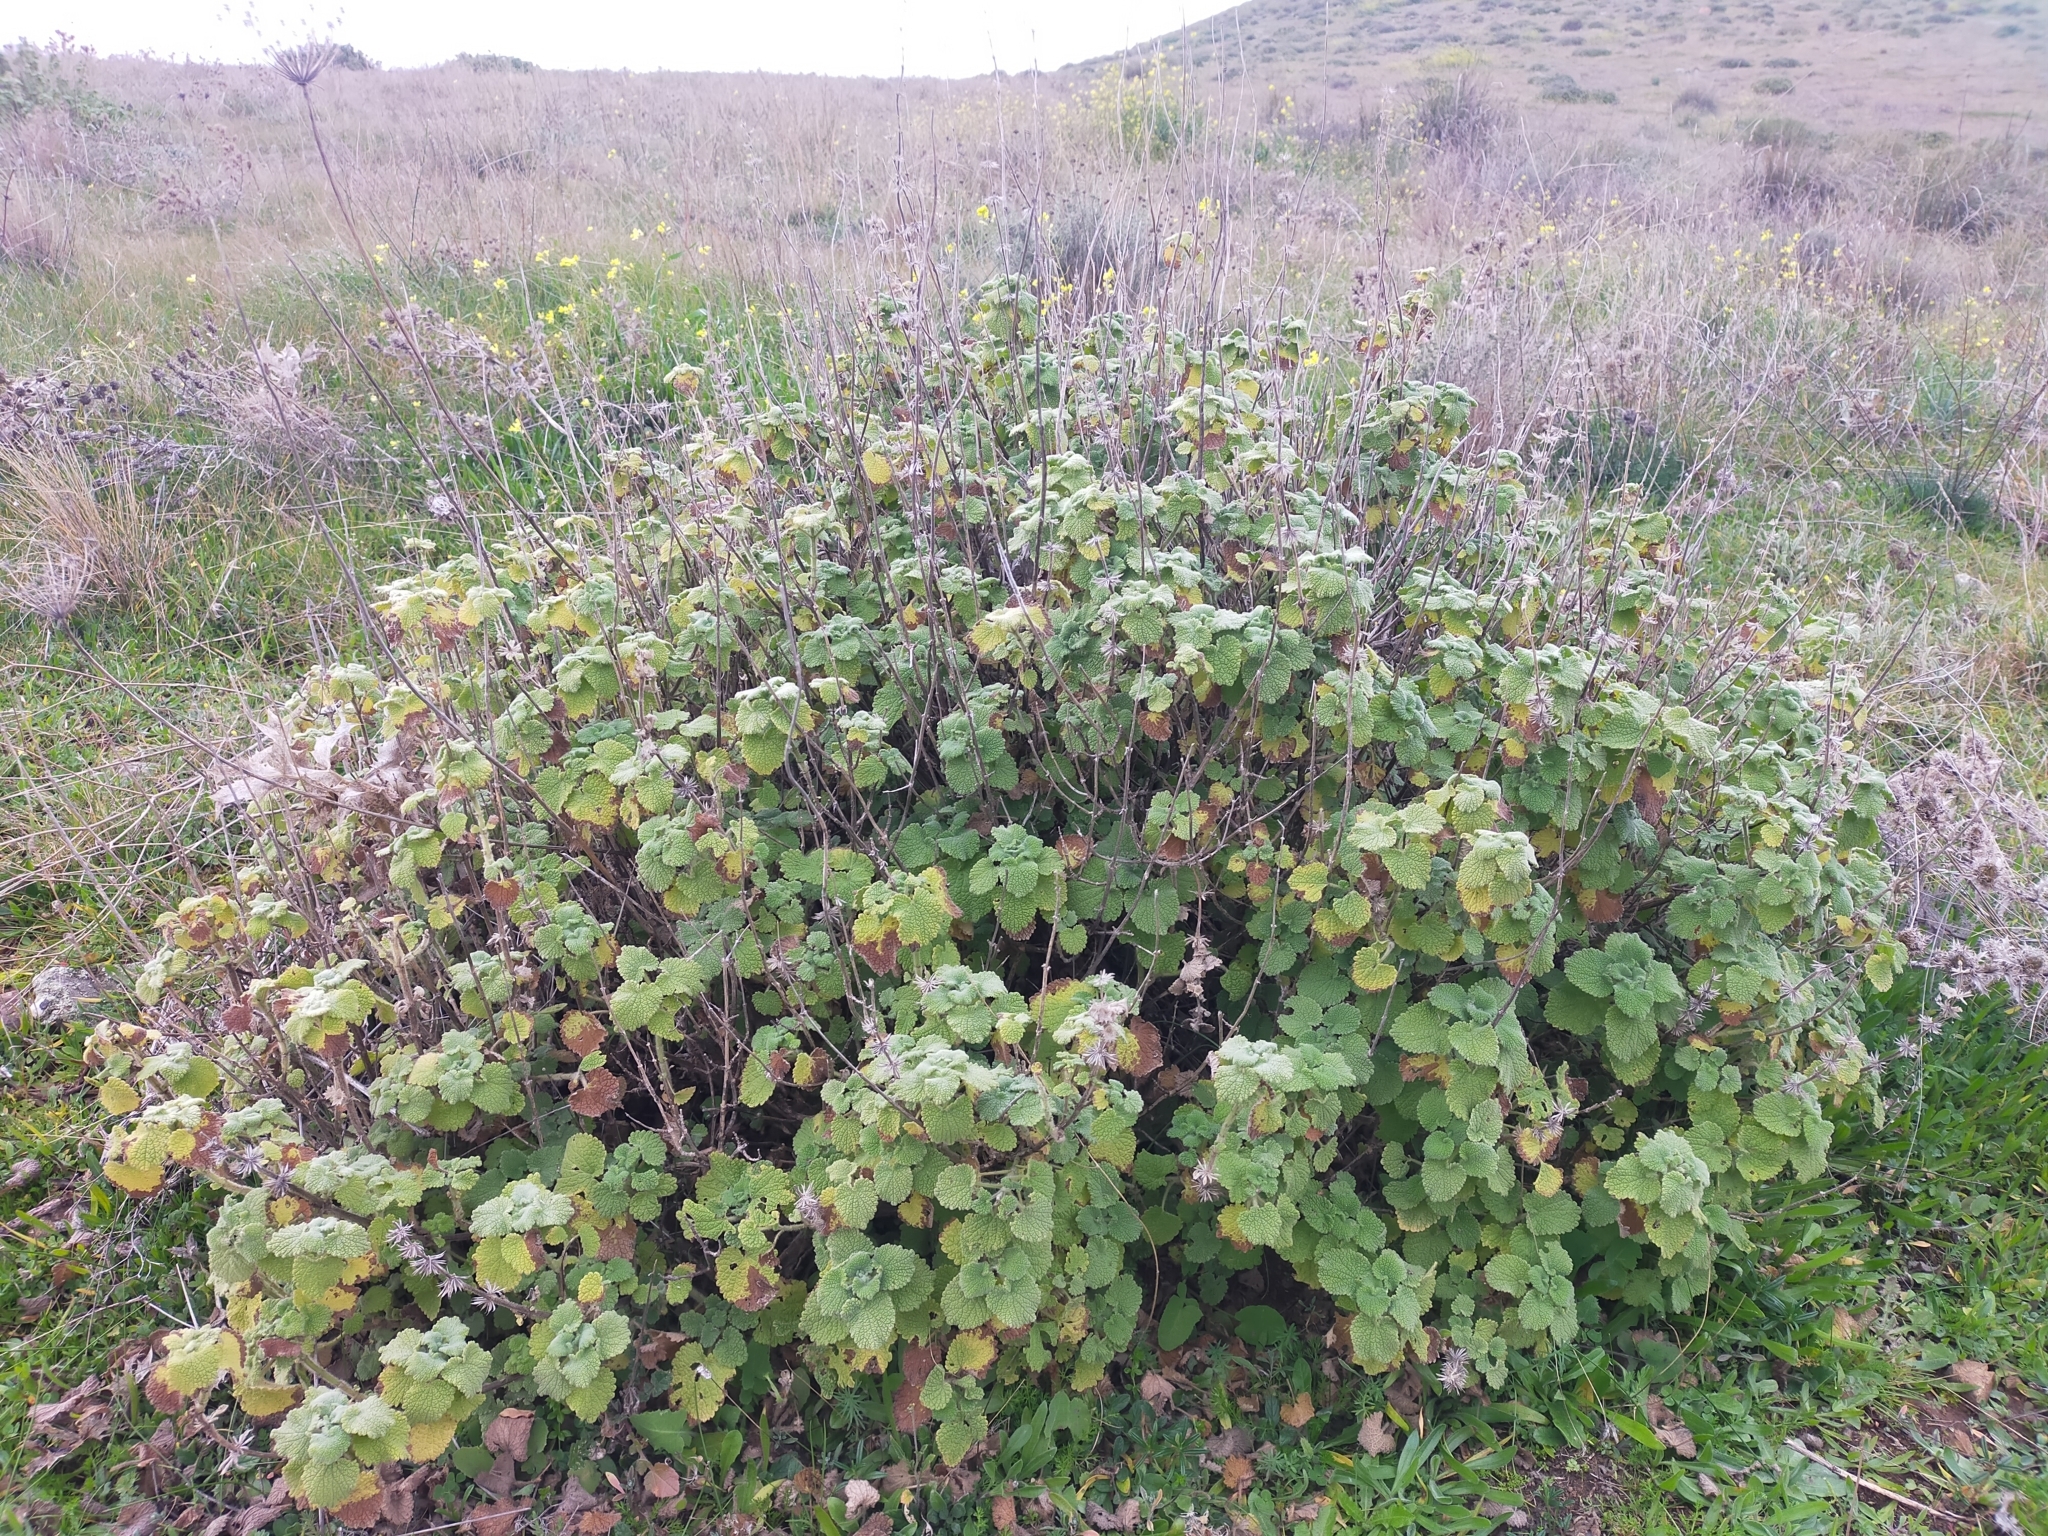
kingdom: Plantae
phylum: Tracheophyta
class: Magnoliopsida
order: Lamiales
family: Lamiaceae
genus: Pseudodictamnus
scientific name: Pseudodictamnus hirsutus
